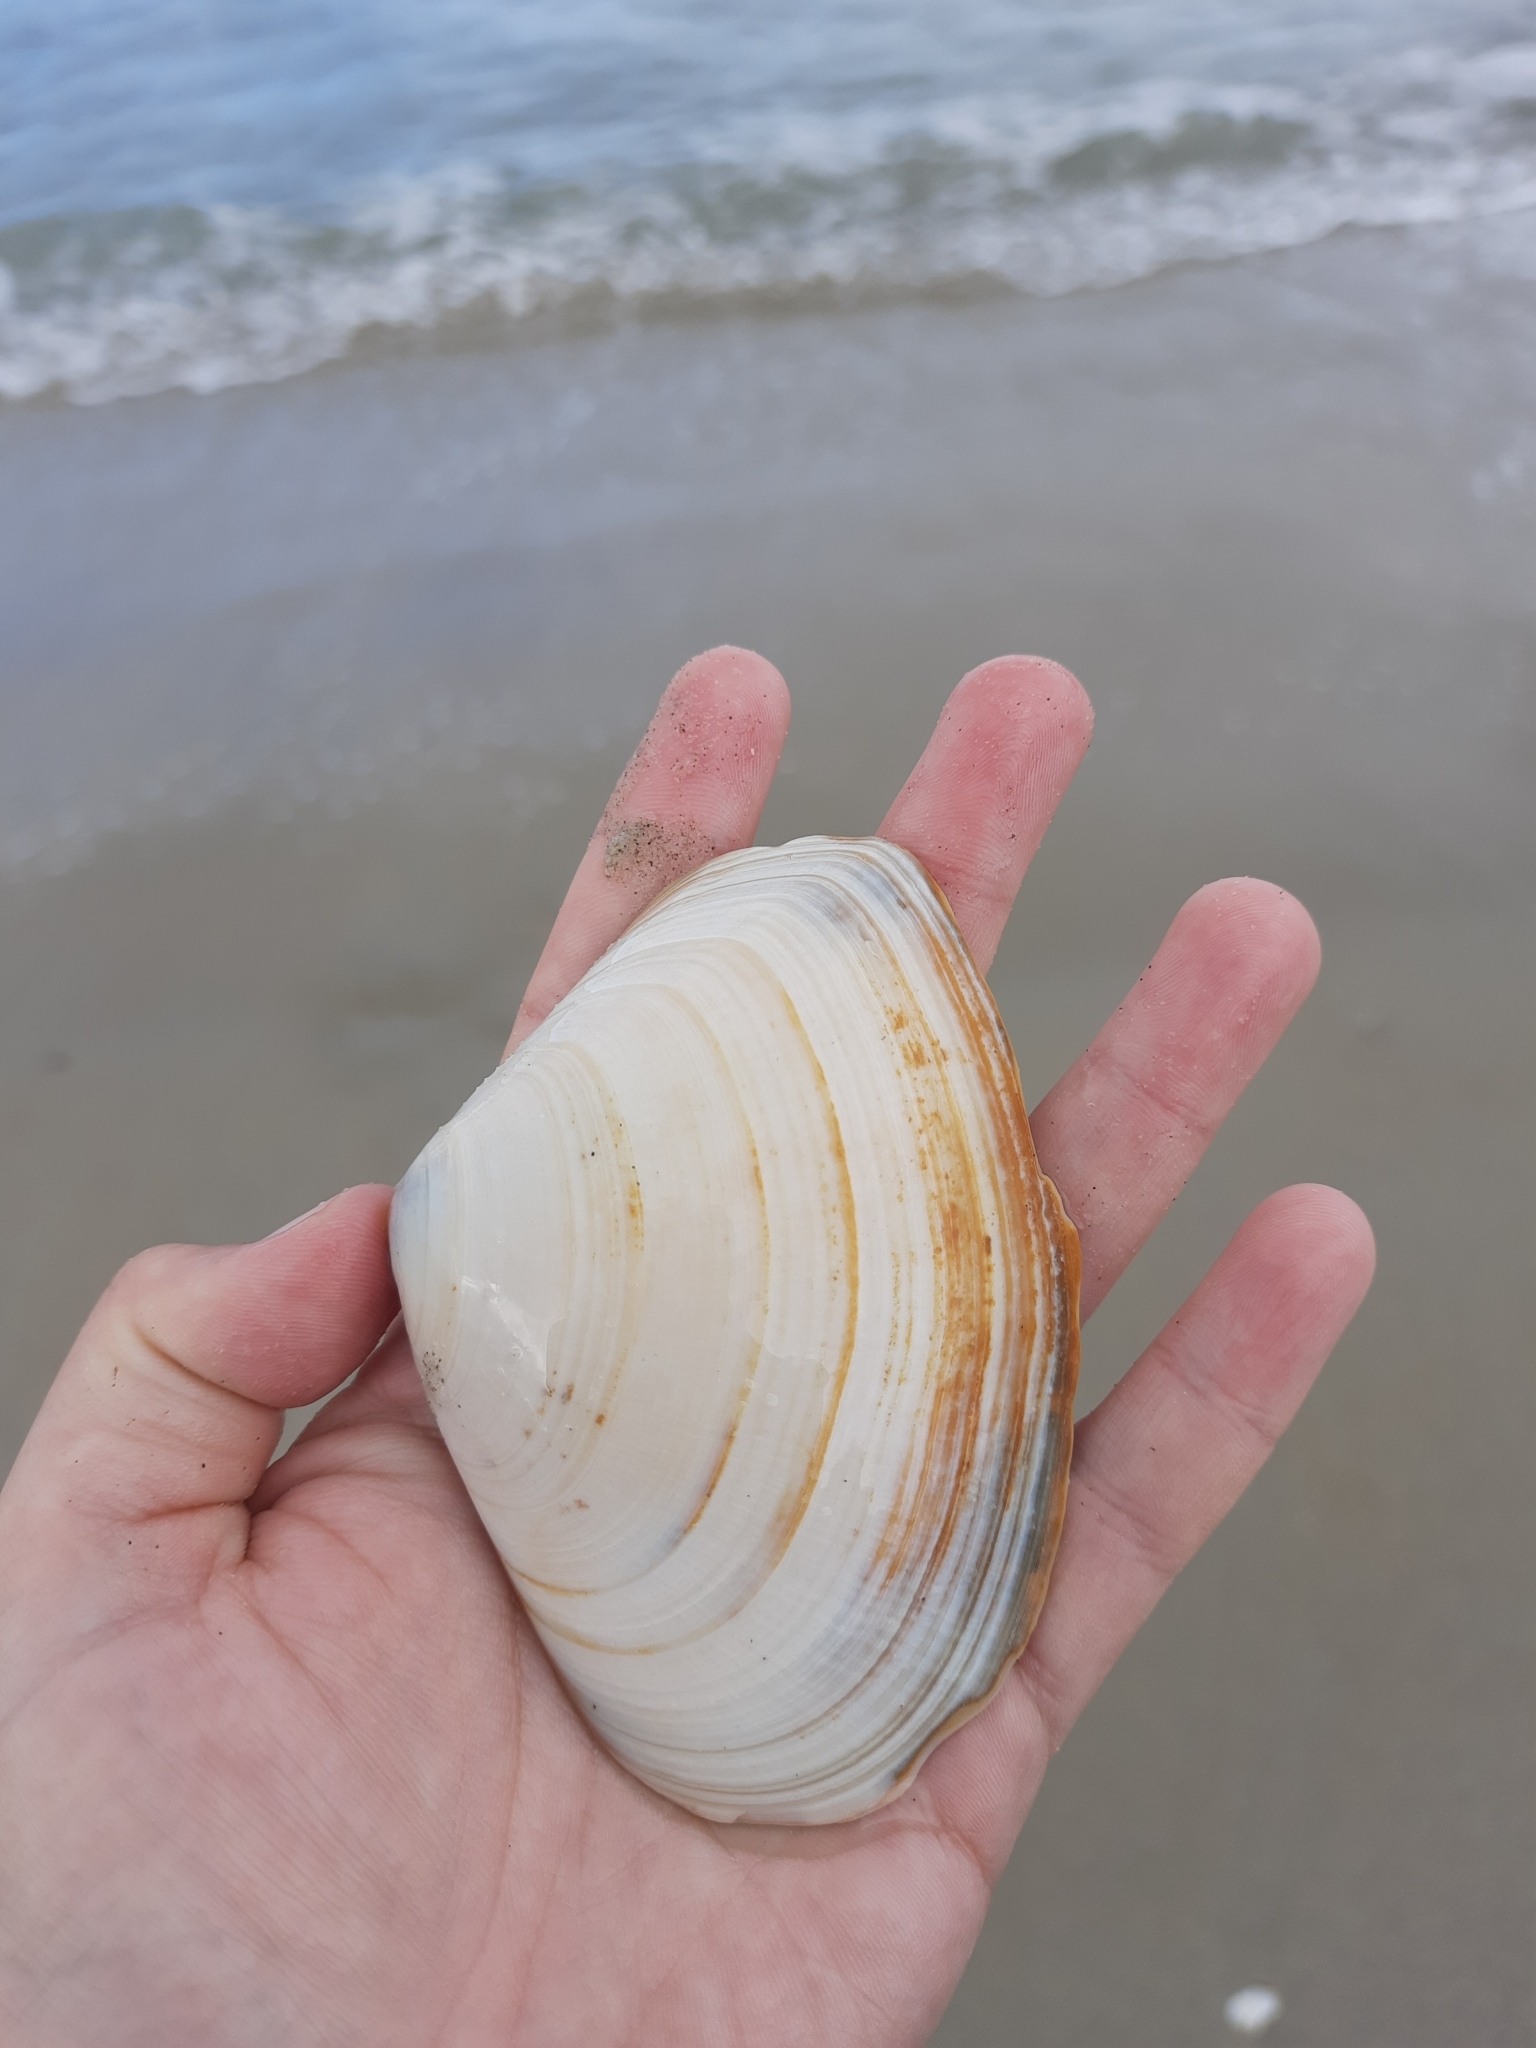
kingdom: Animalia
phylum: Mollusca
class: Bivalvia
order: Venerida
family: Mesodesmatidae
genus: Paphies
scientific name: Paphies donacina
